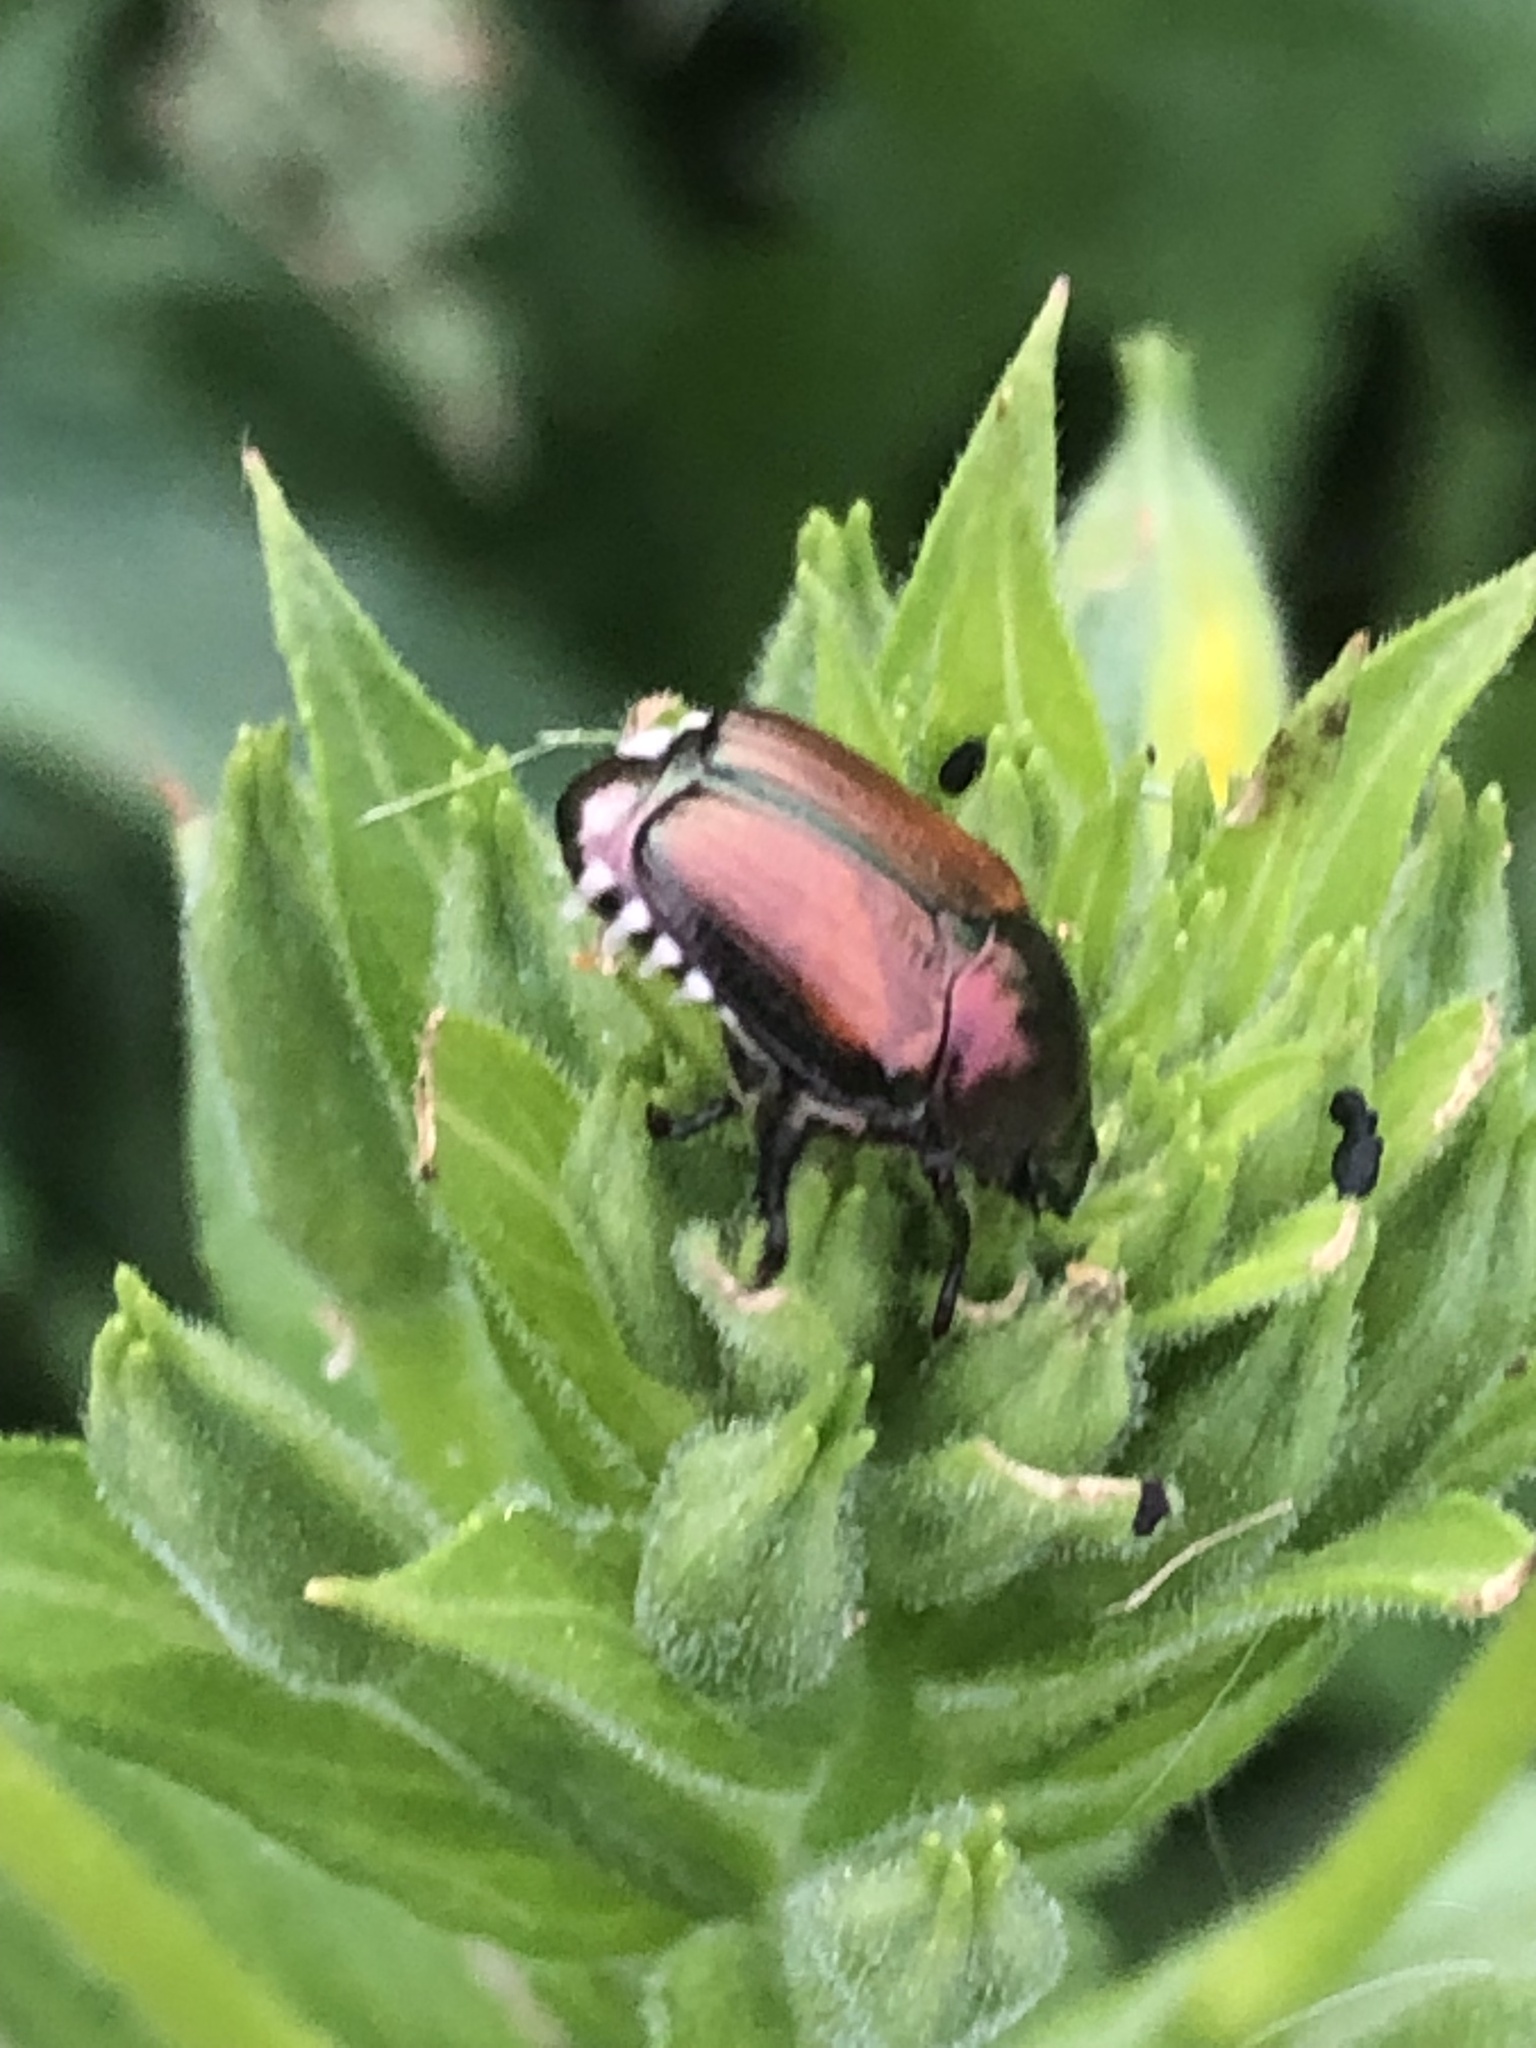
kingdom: Animalia
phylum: Arthropoda
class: Insecta
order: Coleoptera
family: Scarabaeidae
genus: Popillia
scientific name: Popillia japonica
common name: Japanese beetle
